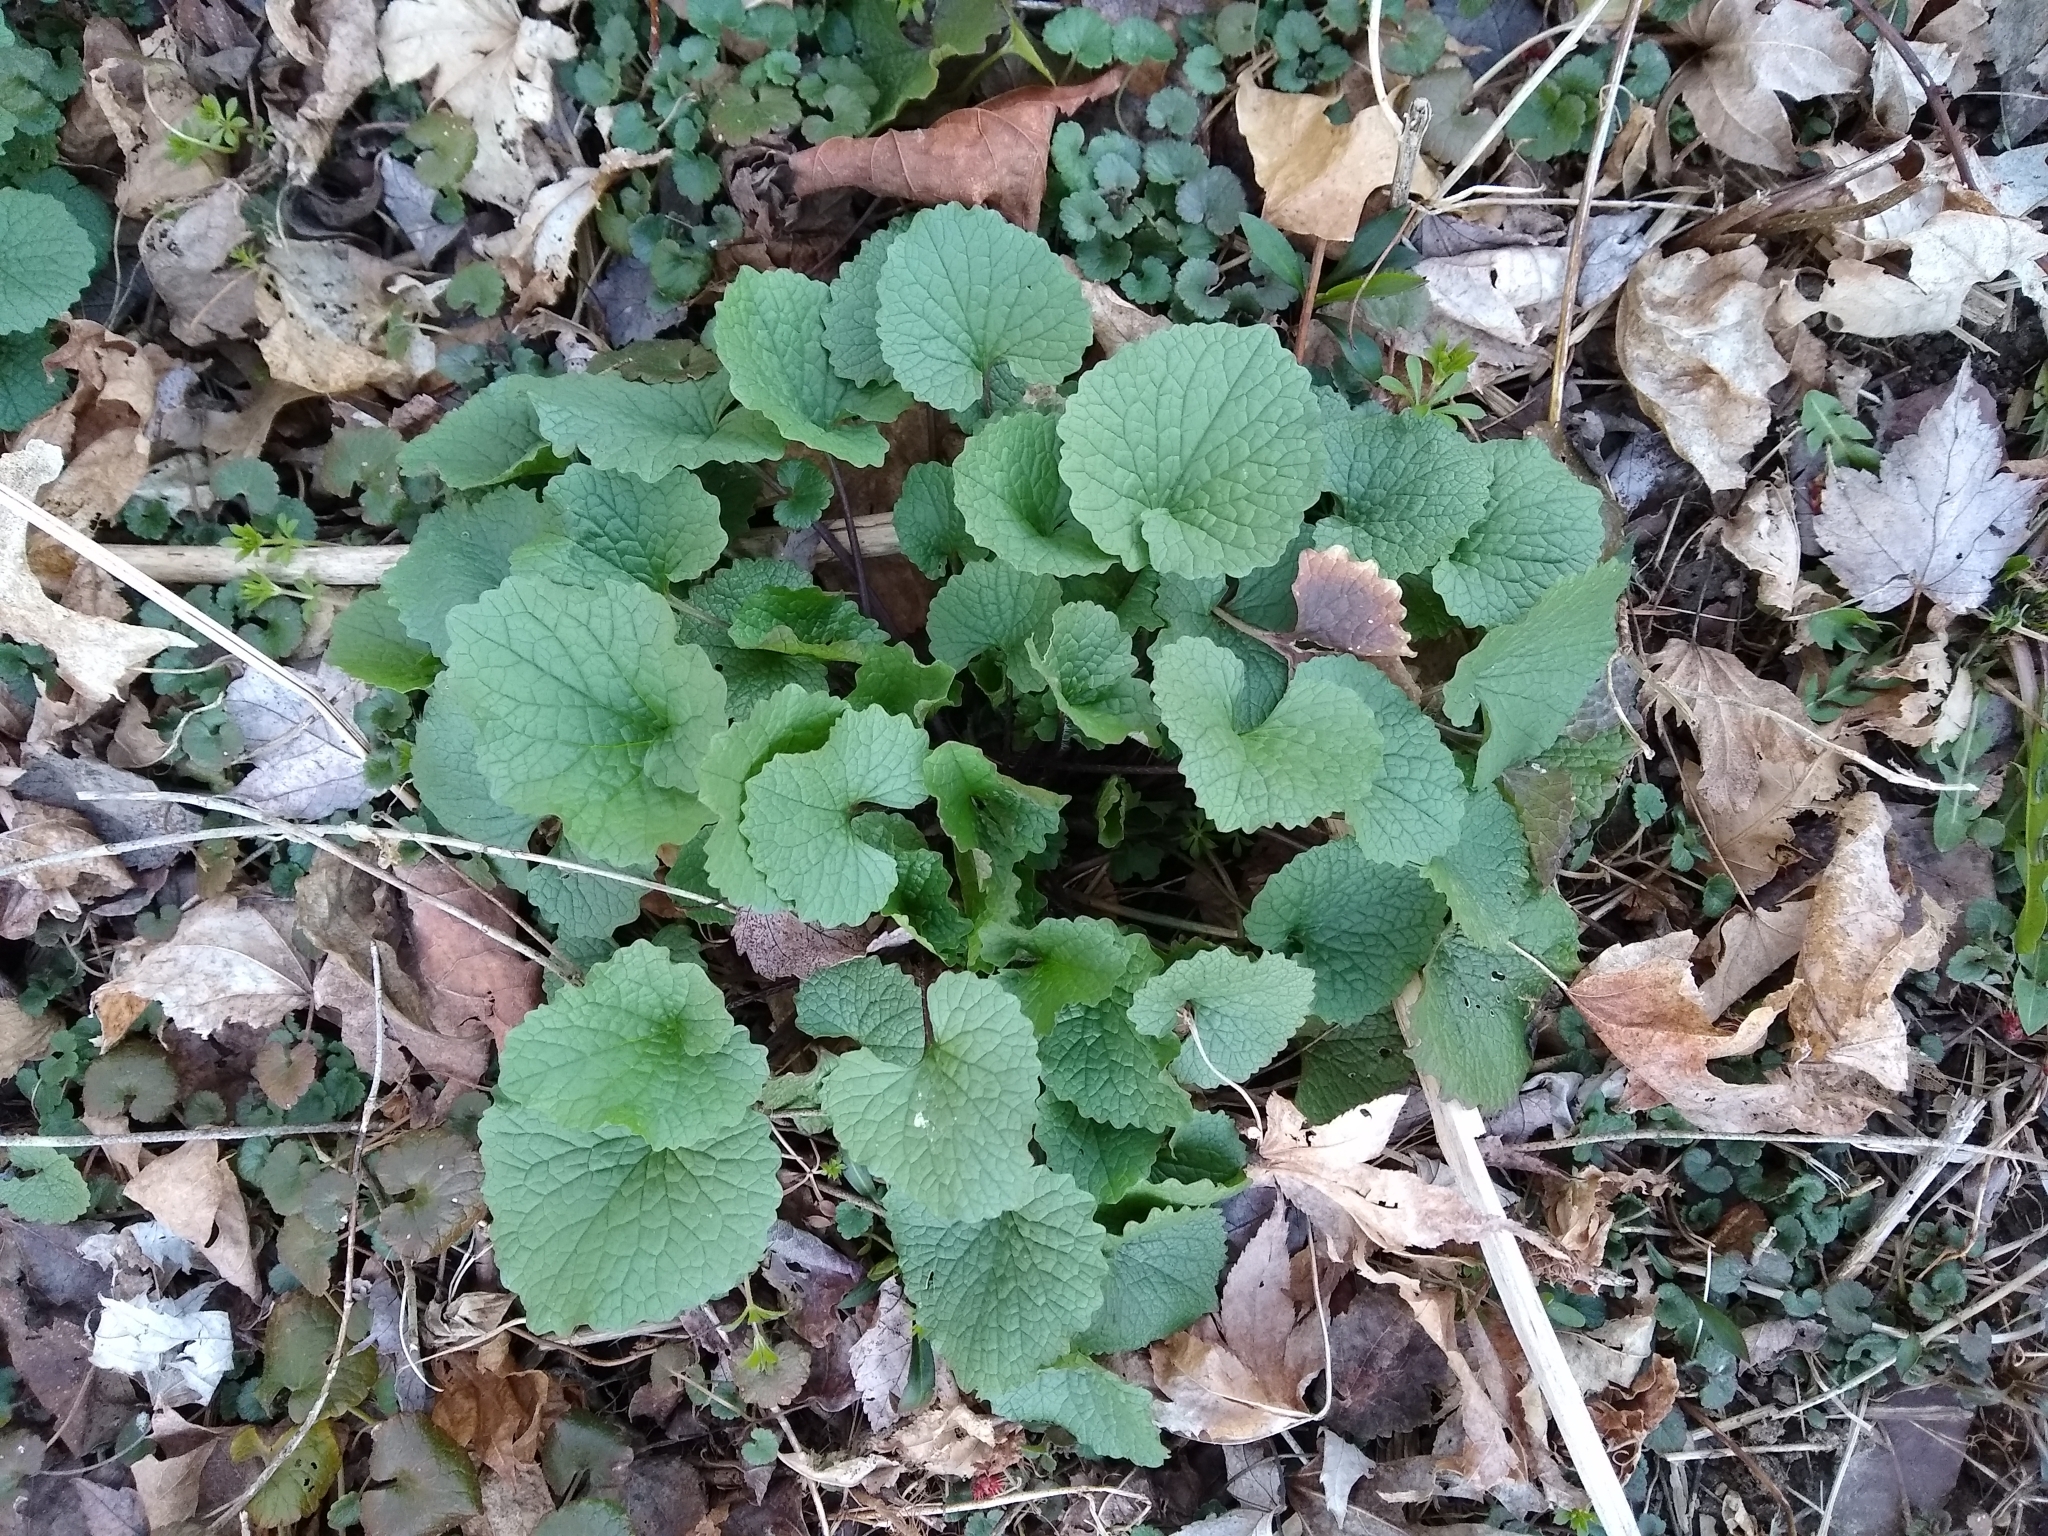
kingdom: Plantae
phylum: Tracheophyta
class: Magnoliopsida
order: Brassicales
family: Brassicaceae
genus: Alliaria
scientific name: Alliaria petiolata
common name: Garlic mustard
